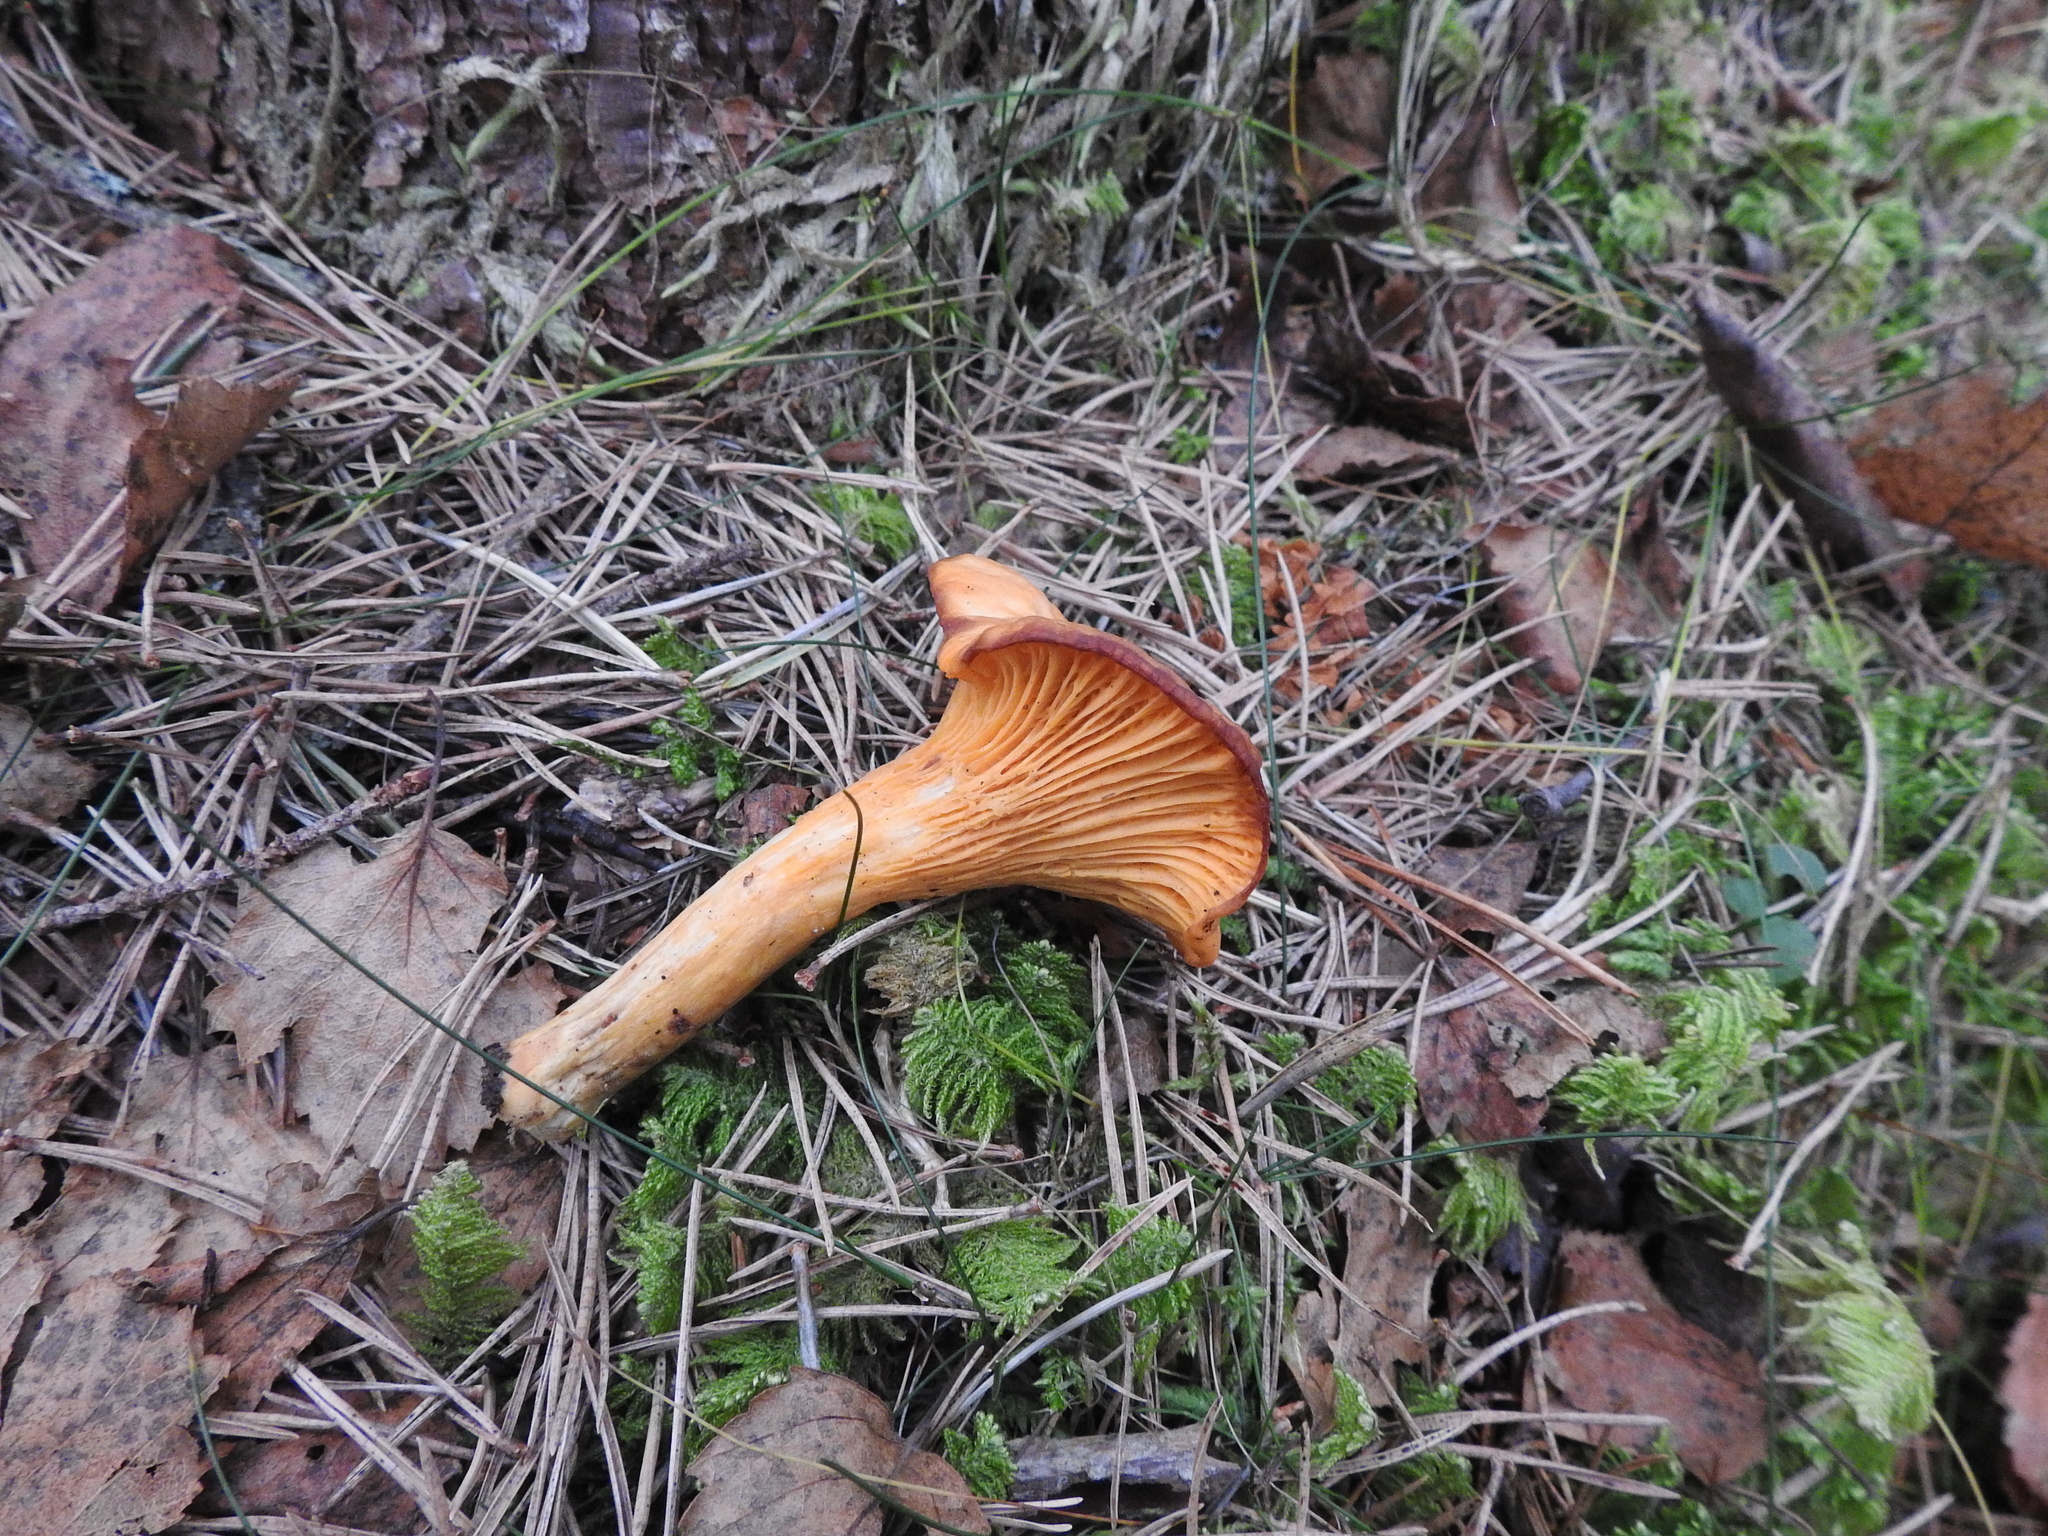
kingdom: Fungi
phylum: Basidiomycota
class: Agaricomycetes
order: Cantharellales
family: Hydnaceae
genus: Cantharellus
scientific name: Cantharellus cibarius
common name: Chanterelle
